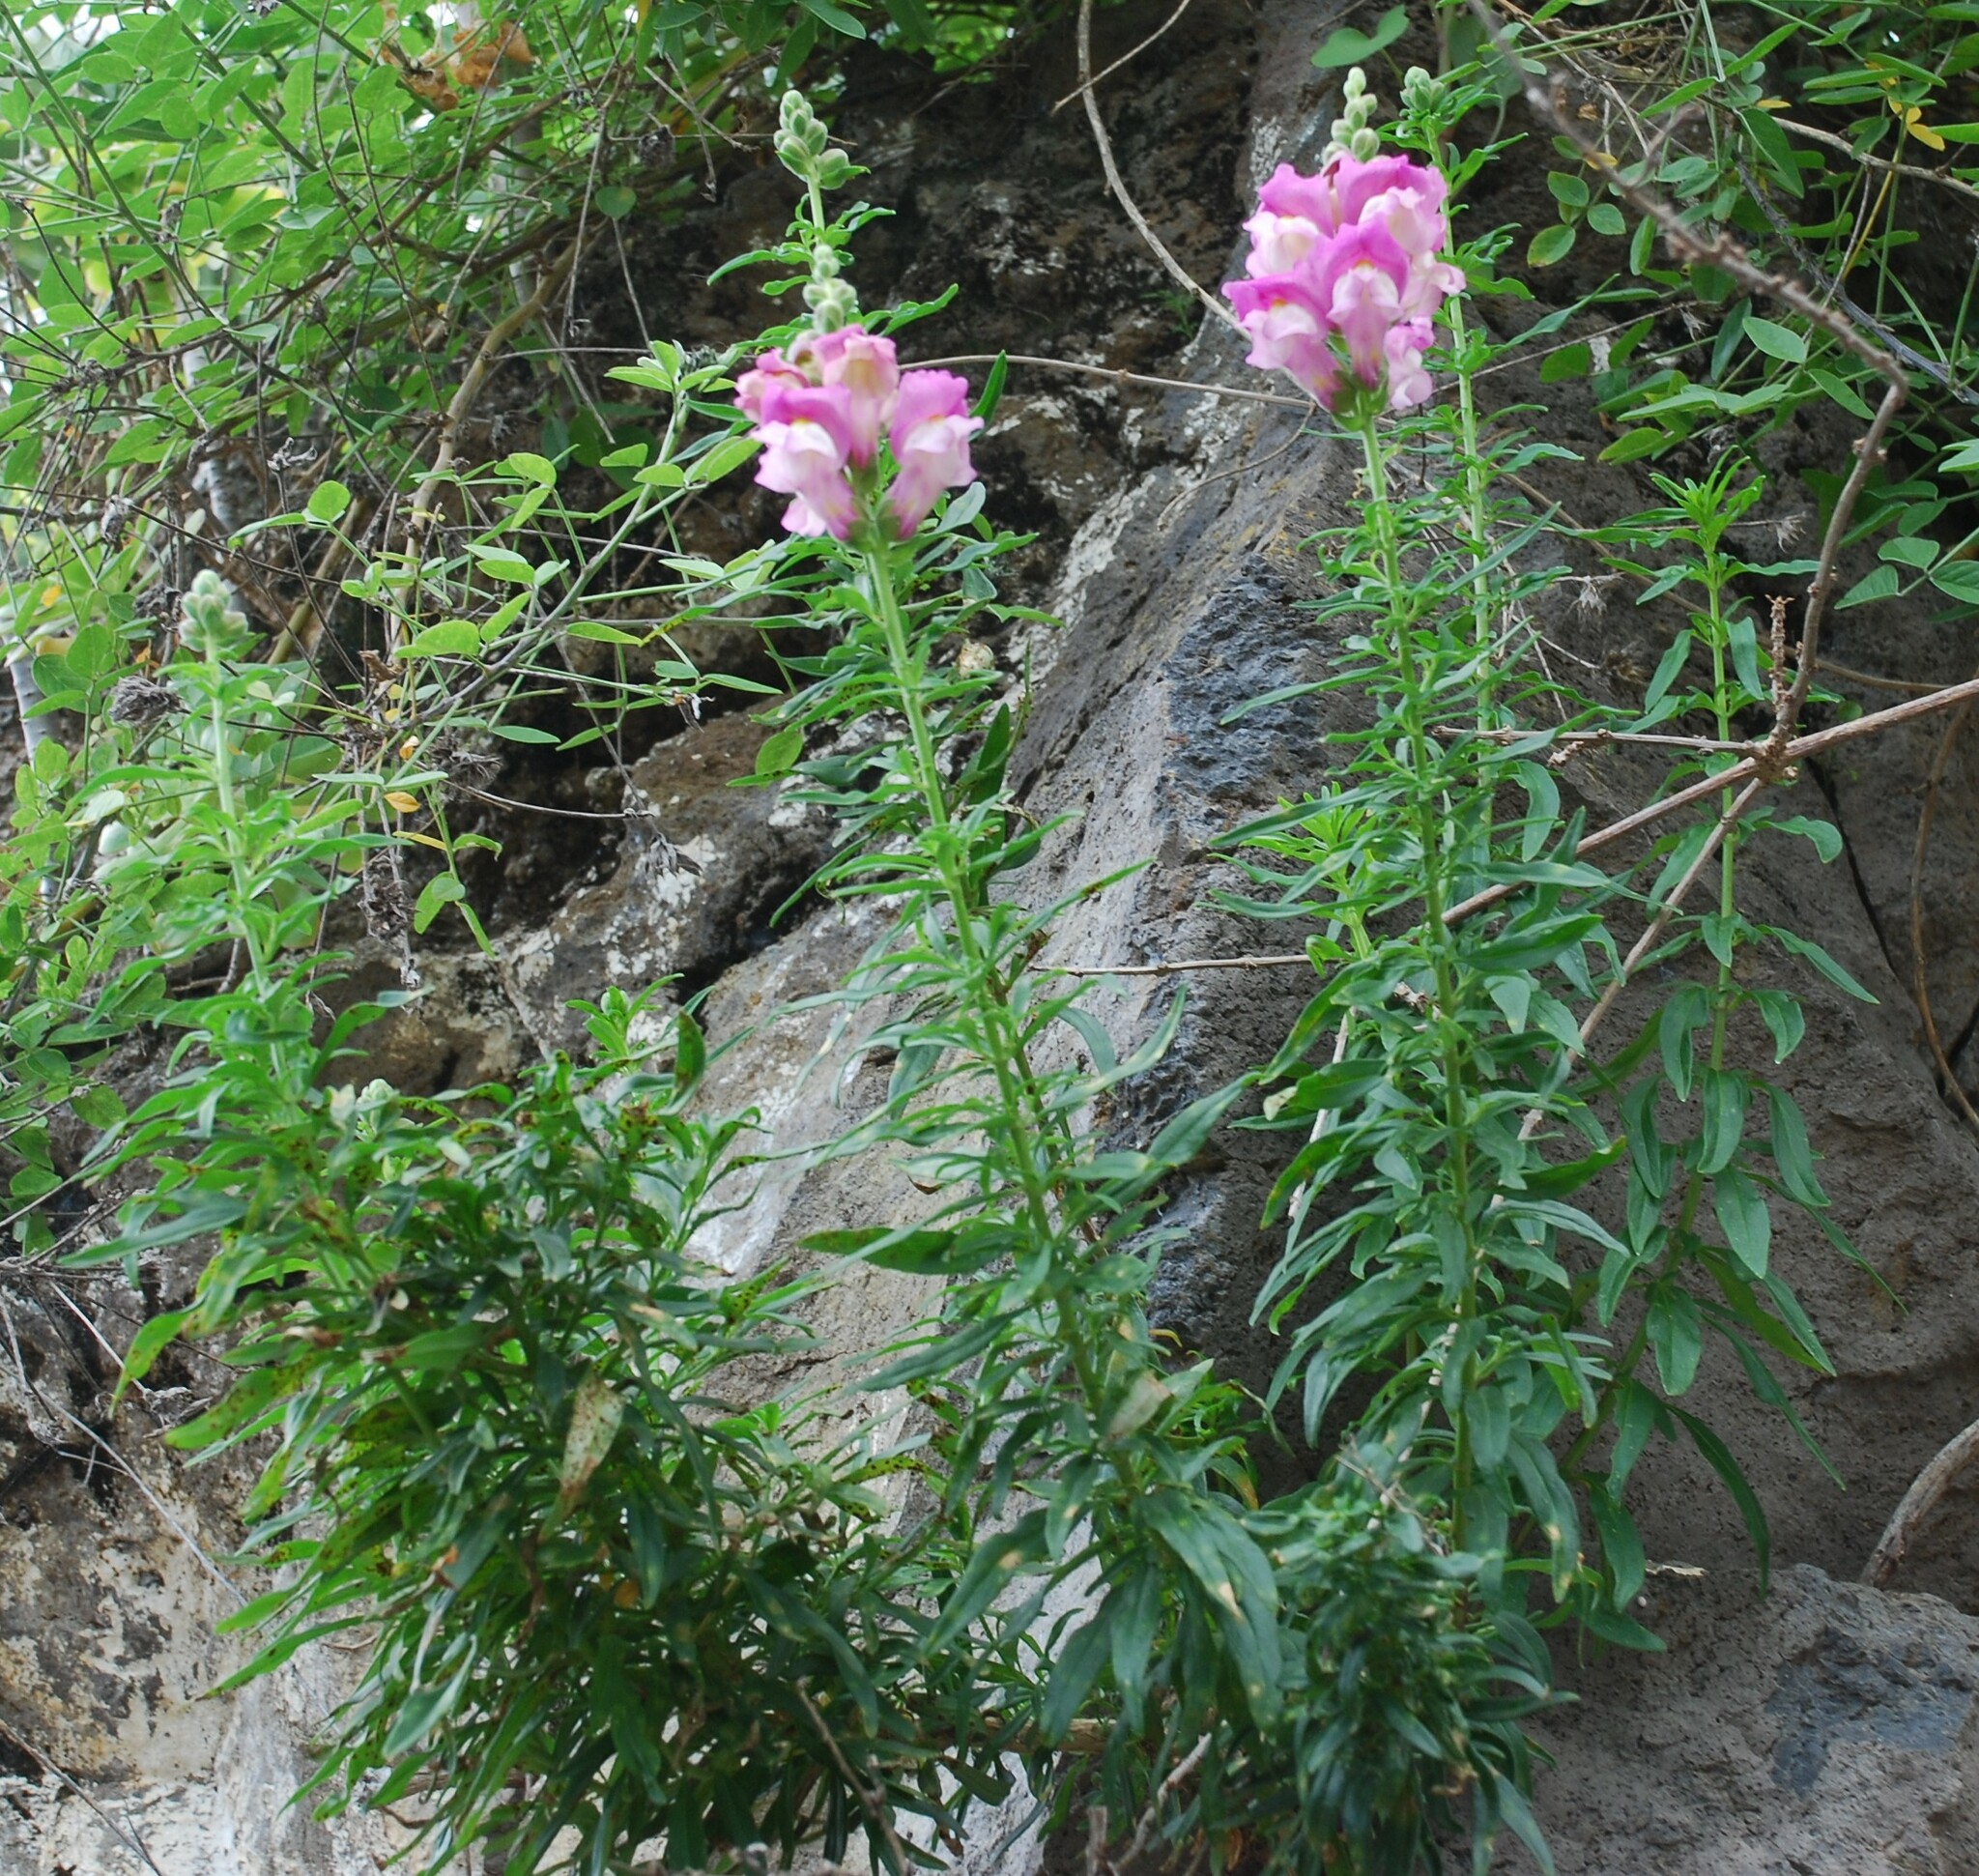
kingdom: Plantae
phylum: Tracheophyta
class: Magnoliopsida
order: Lamiales
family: Plantaginaceae
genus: Antirrhinum
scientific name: Antirrhinum majus
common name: Snapdragon
